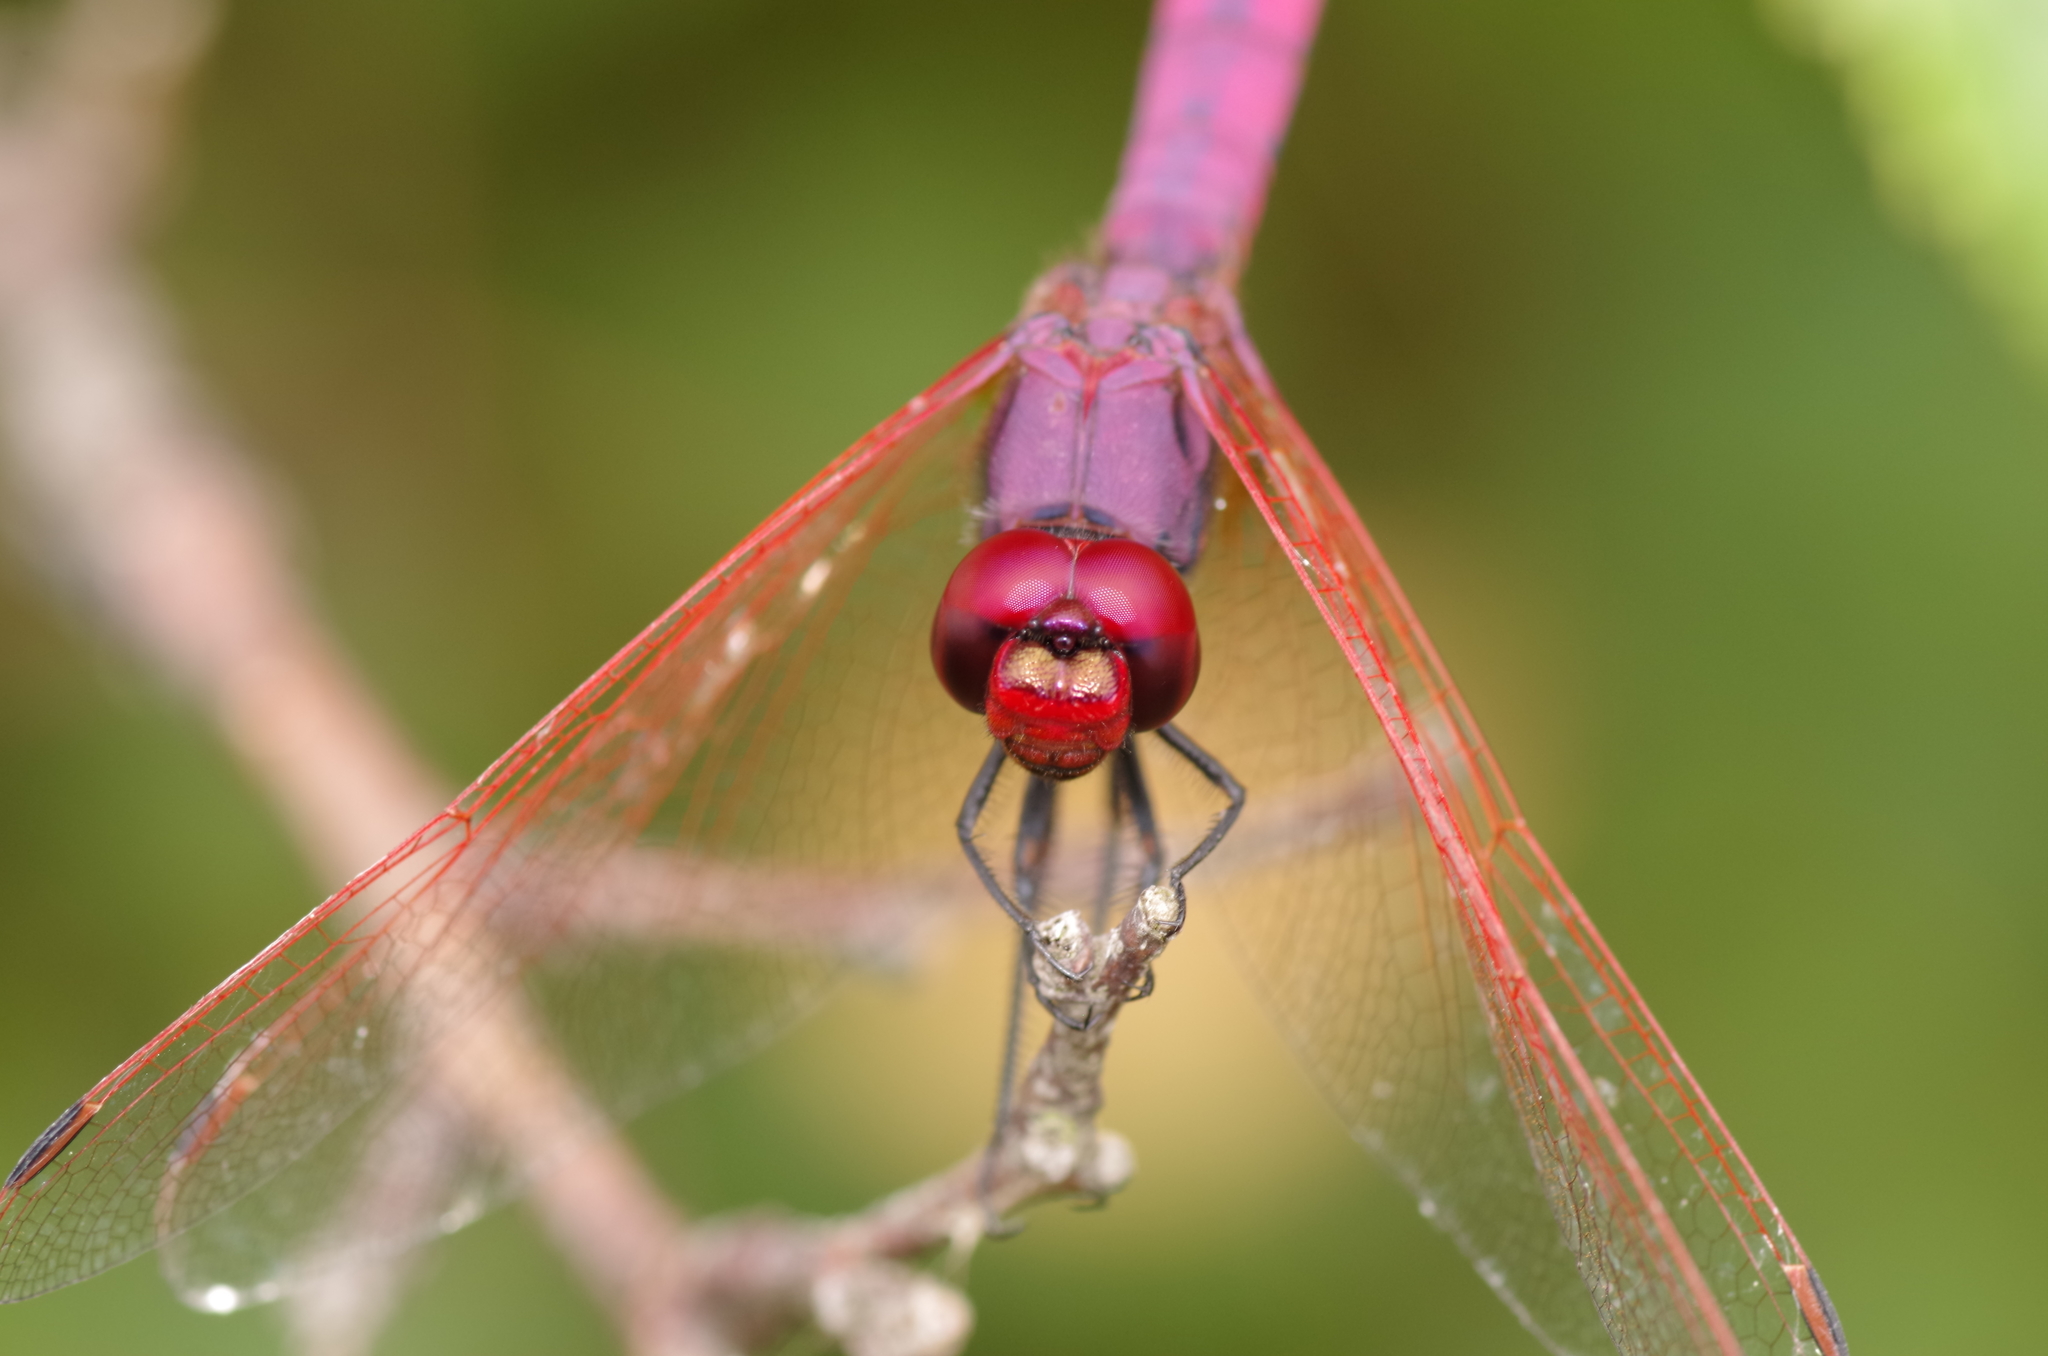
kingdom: Animalia
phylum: Arthropoda
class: Insecta
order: Odonata
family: Libellulidae
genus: Trithemis
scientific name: Trithemis annulata
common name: Violet dropwing
